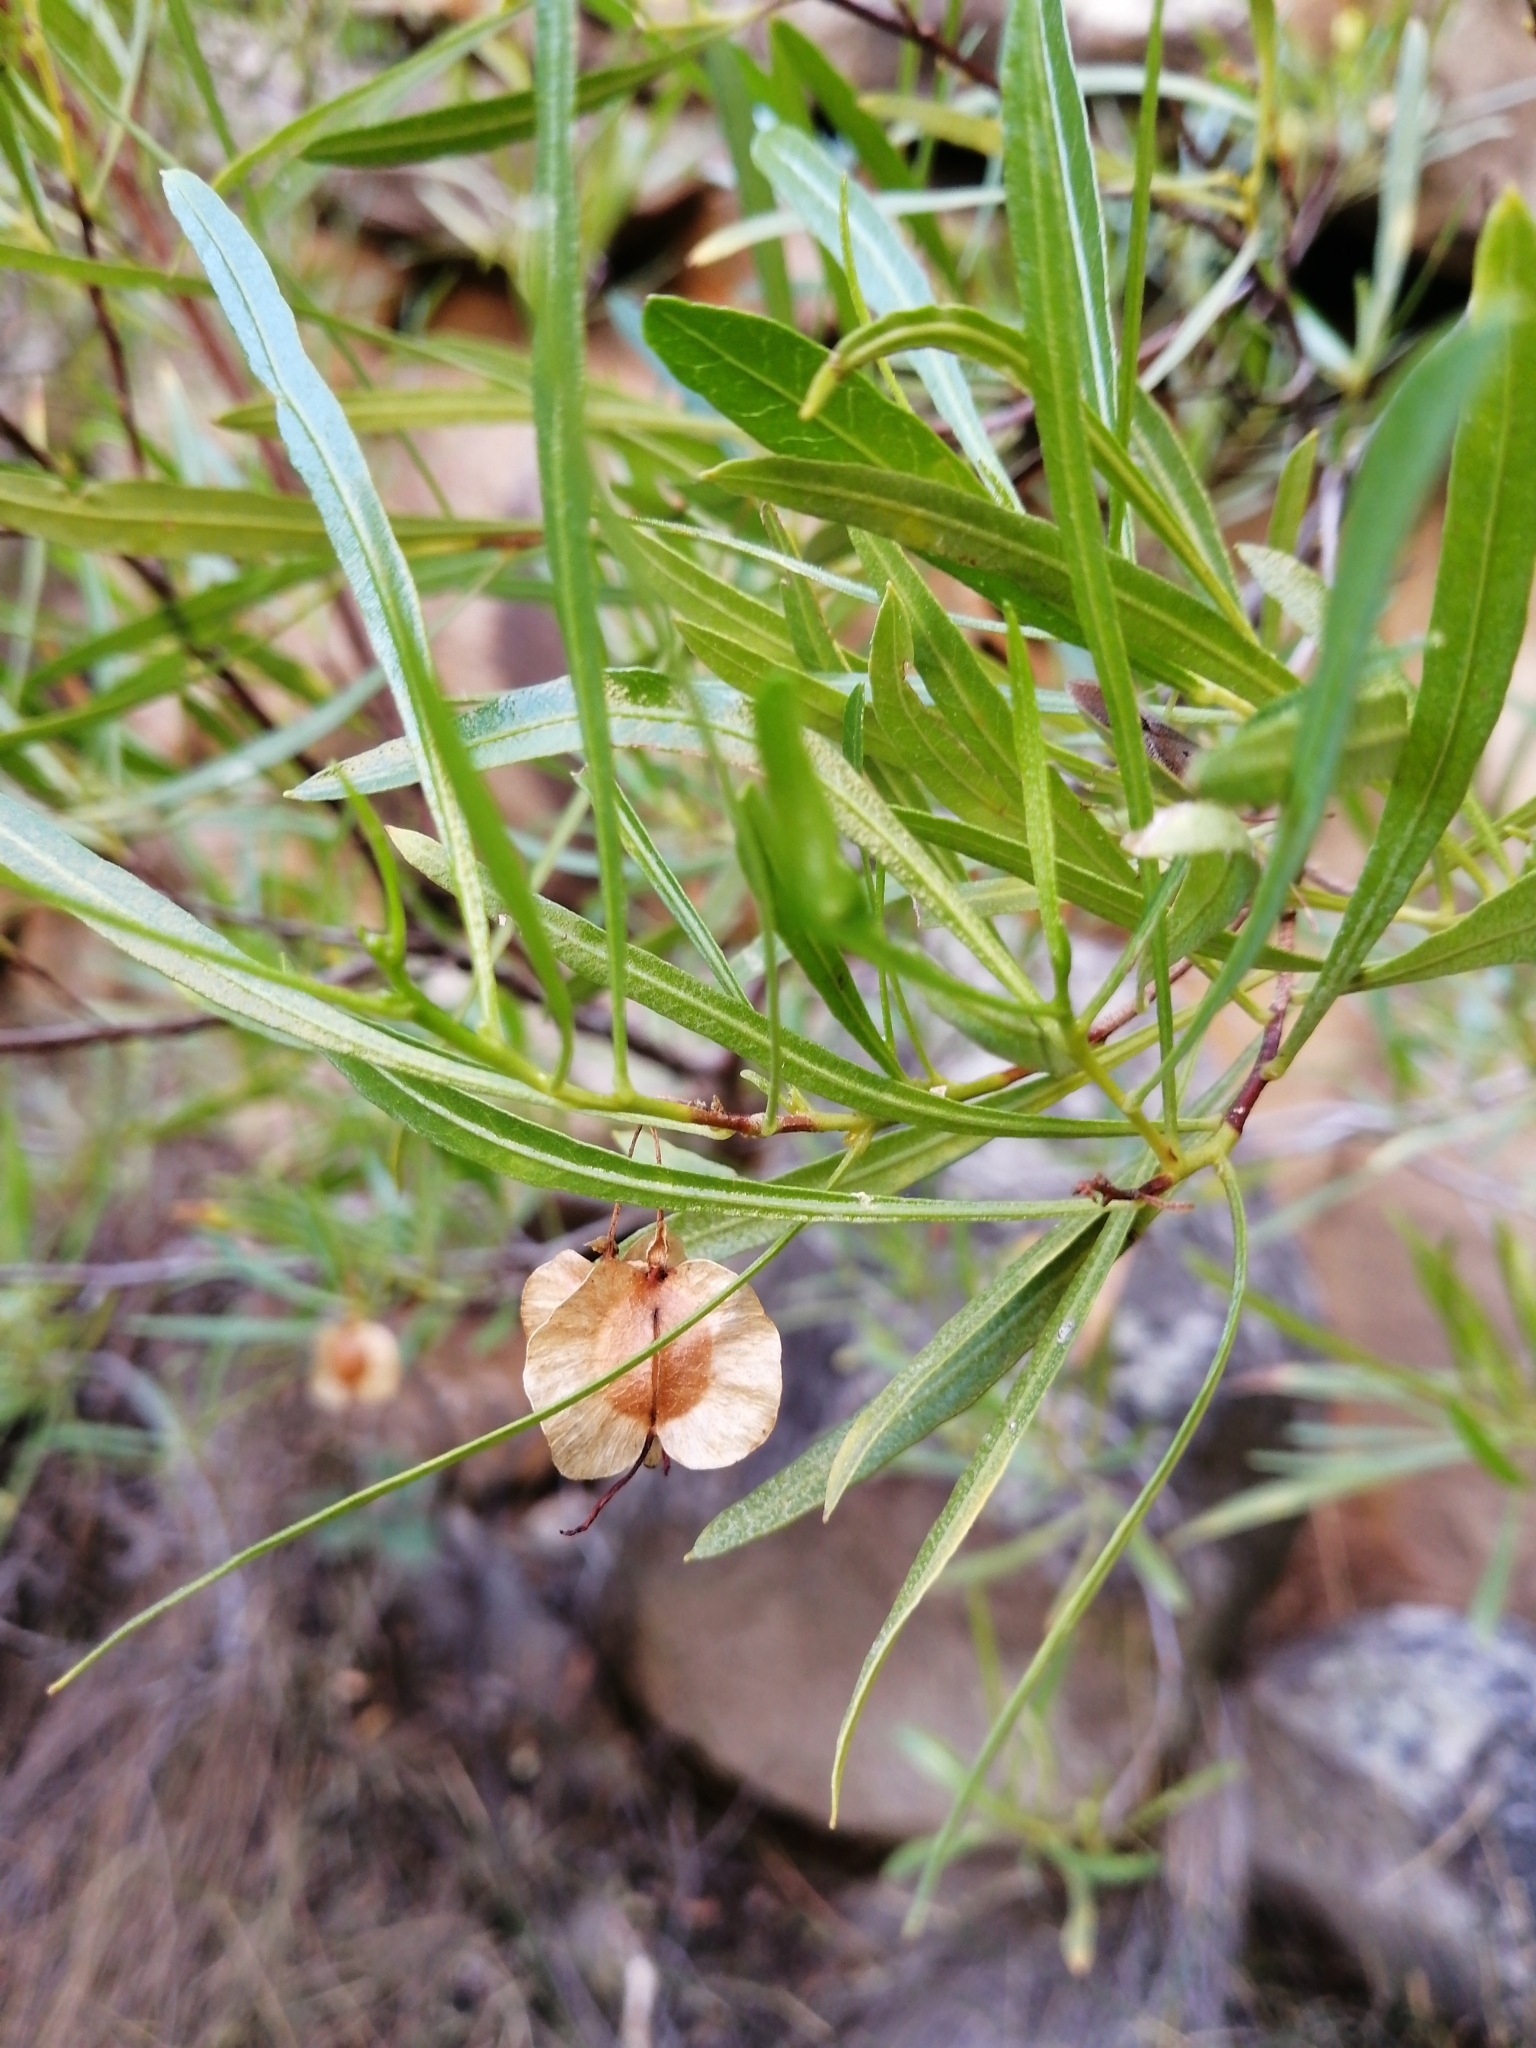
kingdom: Plantae
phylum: Tracheophyta
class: Magnoliopsida
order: Sapindales
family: Sapindaceae
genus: Dodonaea
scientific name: Dodonaea viscosa
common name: Hopbush
